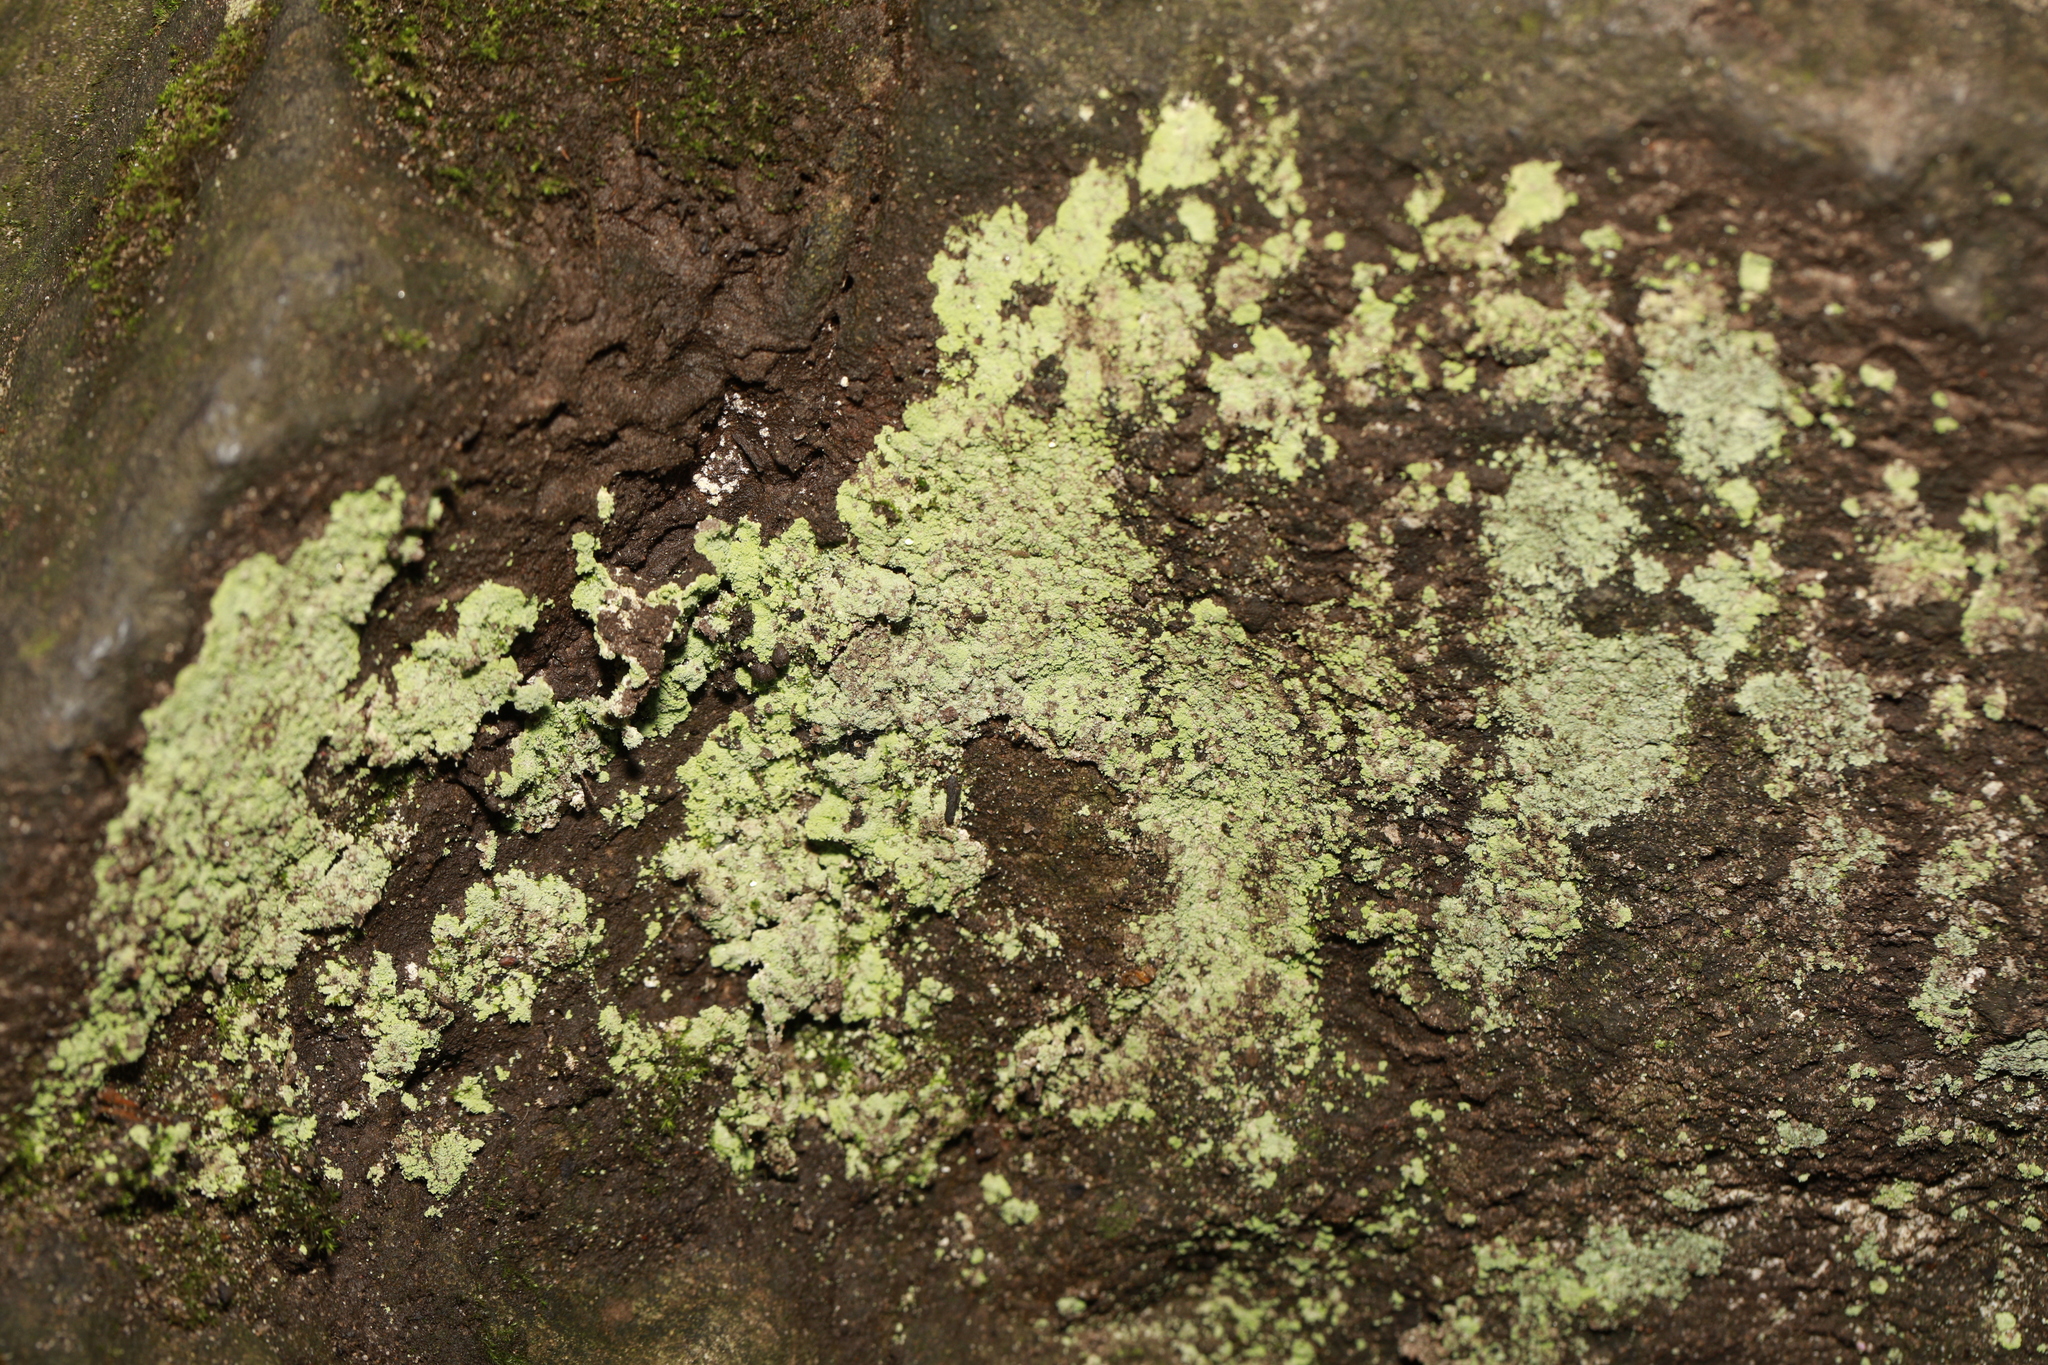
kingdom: Fungi
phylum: Ascomycota
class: Lecanoromycetes
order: Lecanorales
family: Stereocaulaceae
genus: Lepraria
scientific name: Lepraria
